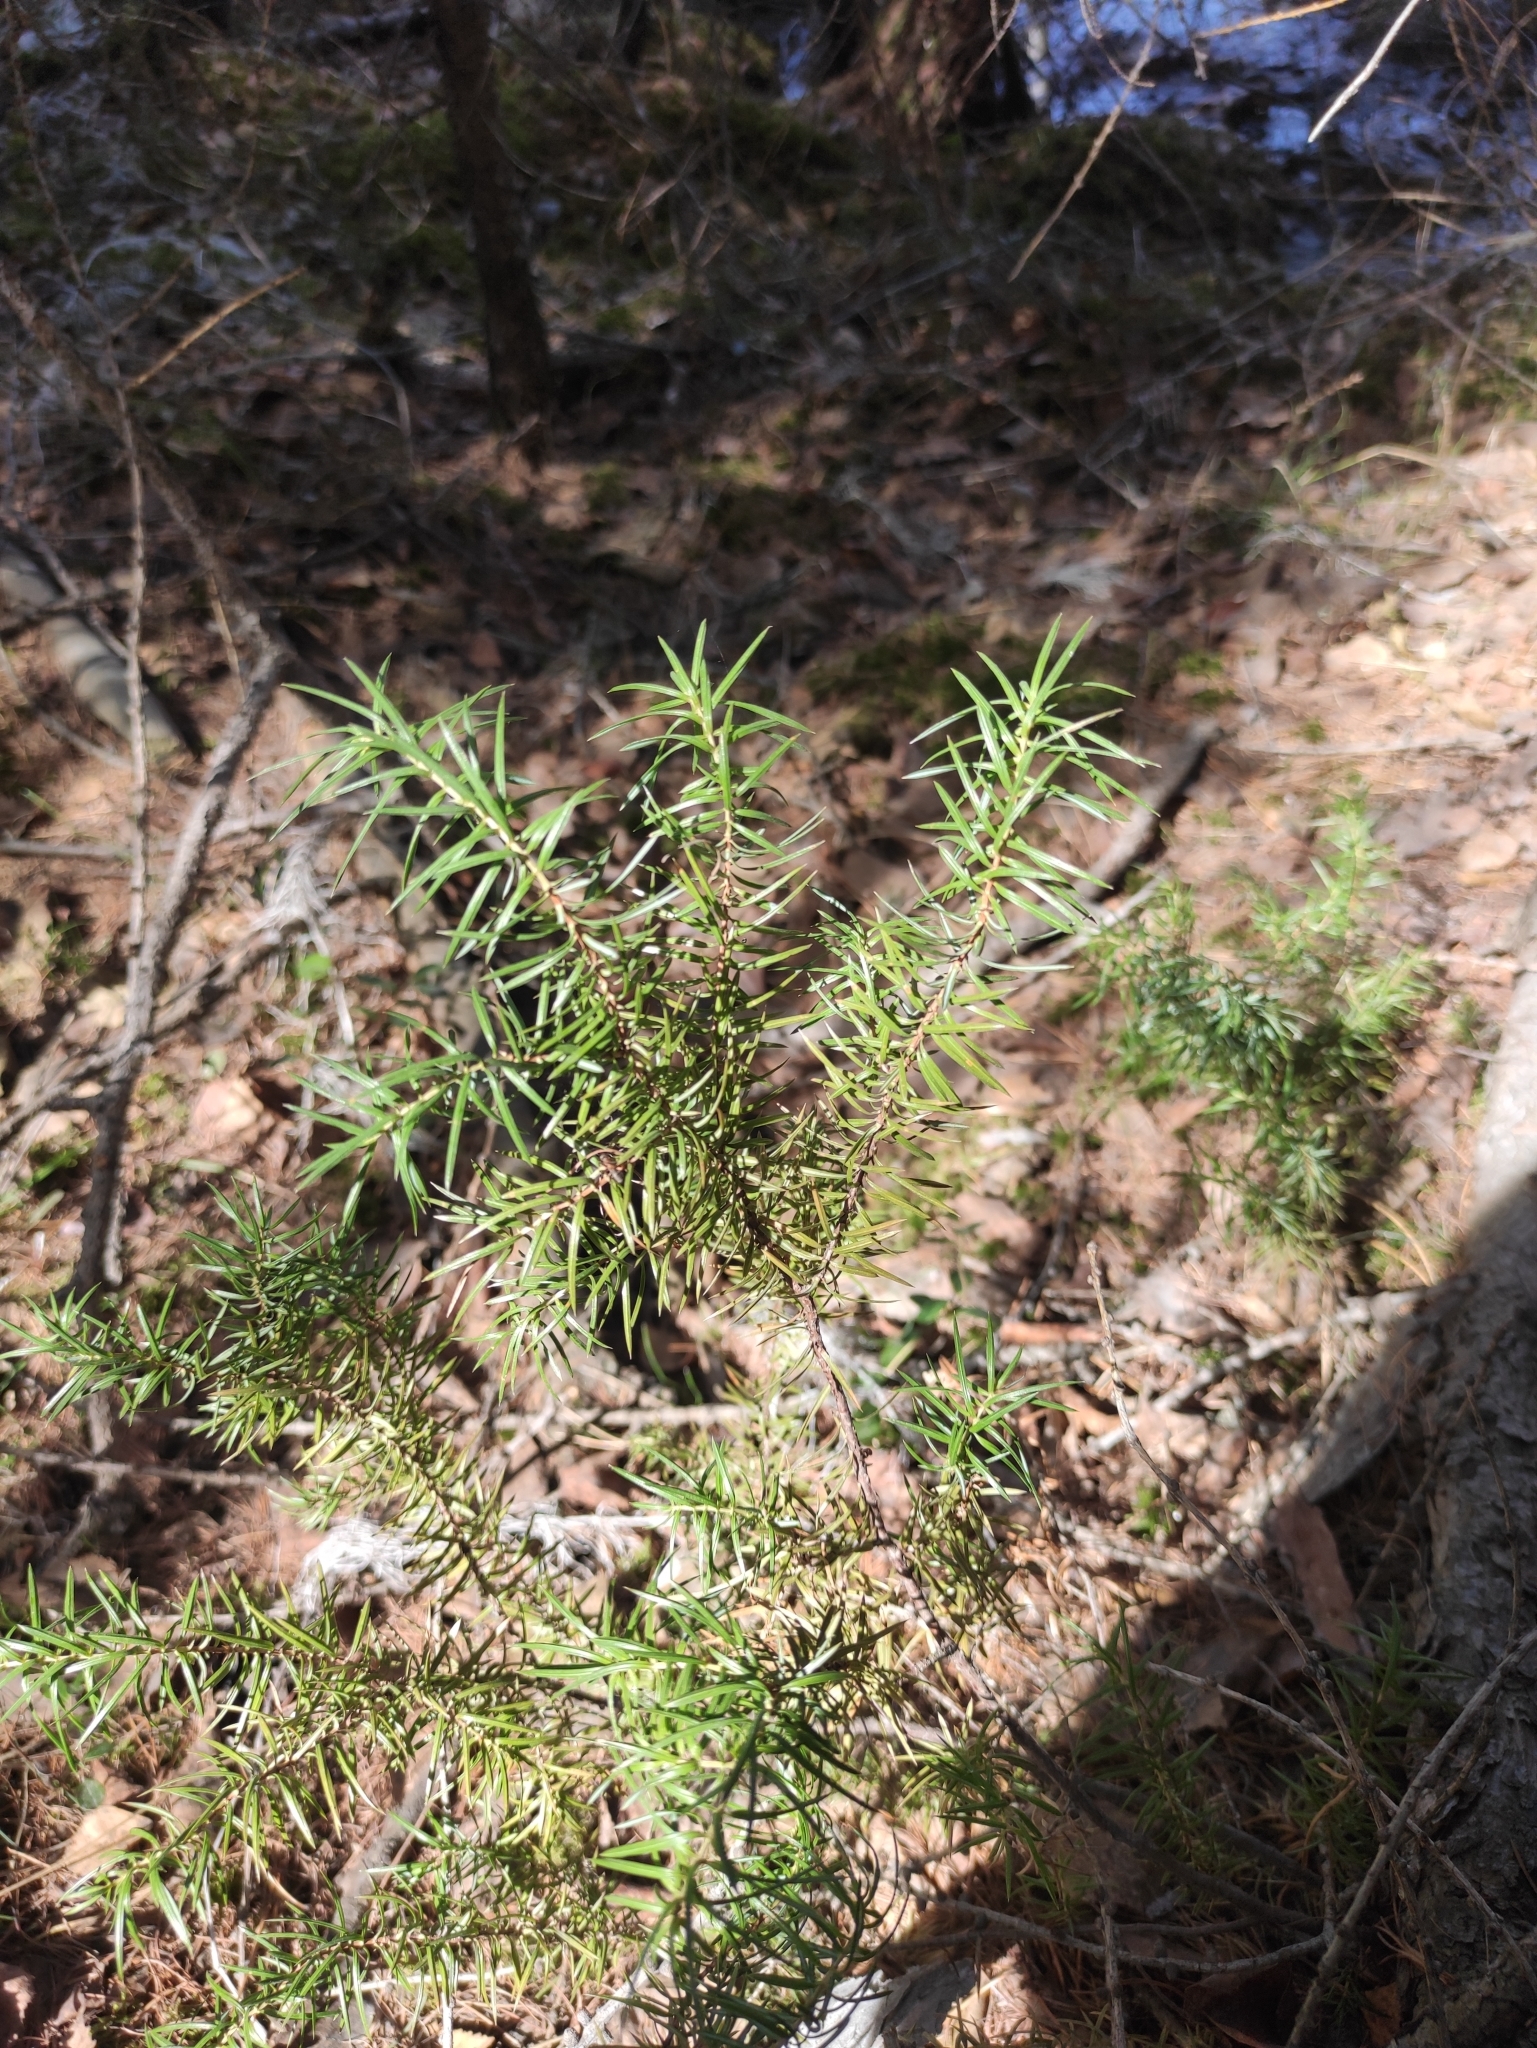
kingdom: Plantae
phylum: Tracheophyta
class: Pinopsida
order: Pinales
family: Cupressaceae
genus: Juniperus
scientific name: Juniperus communis
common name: Common juniper
